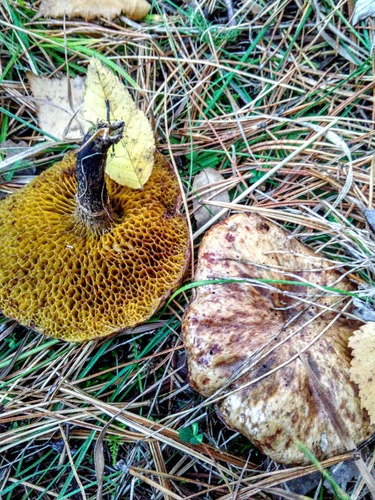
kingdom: Fungi
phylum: Basidiomycota
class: Agaricomycetes
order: Boletales
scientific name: Boletales
